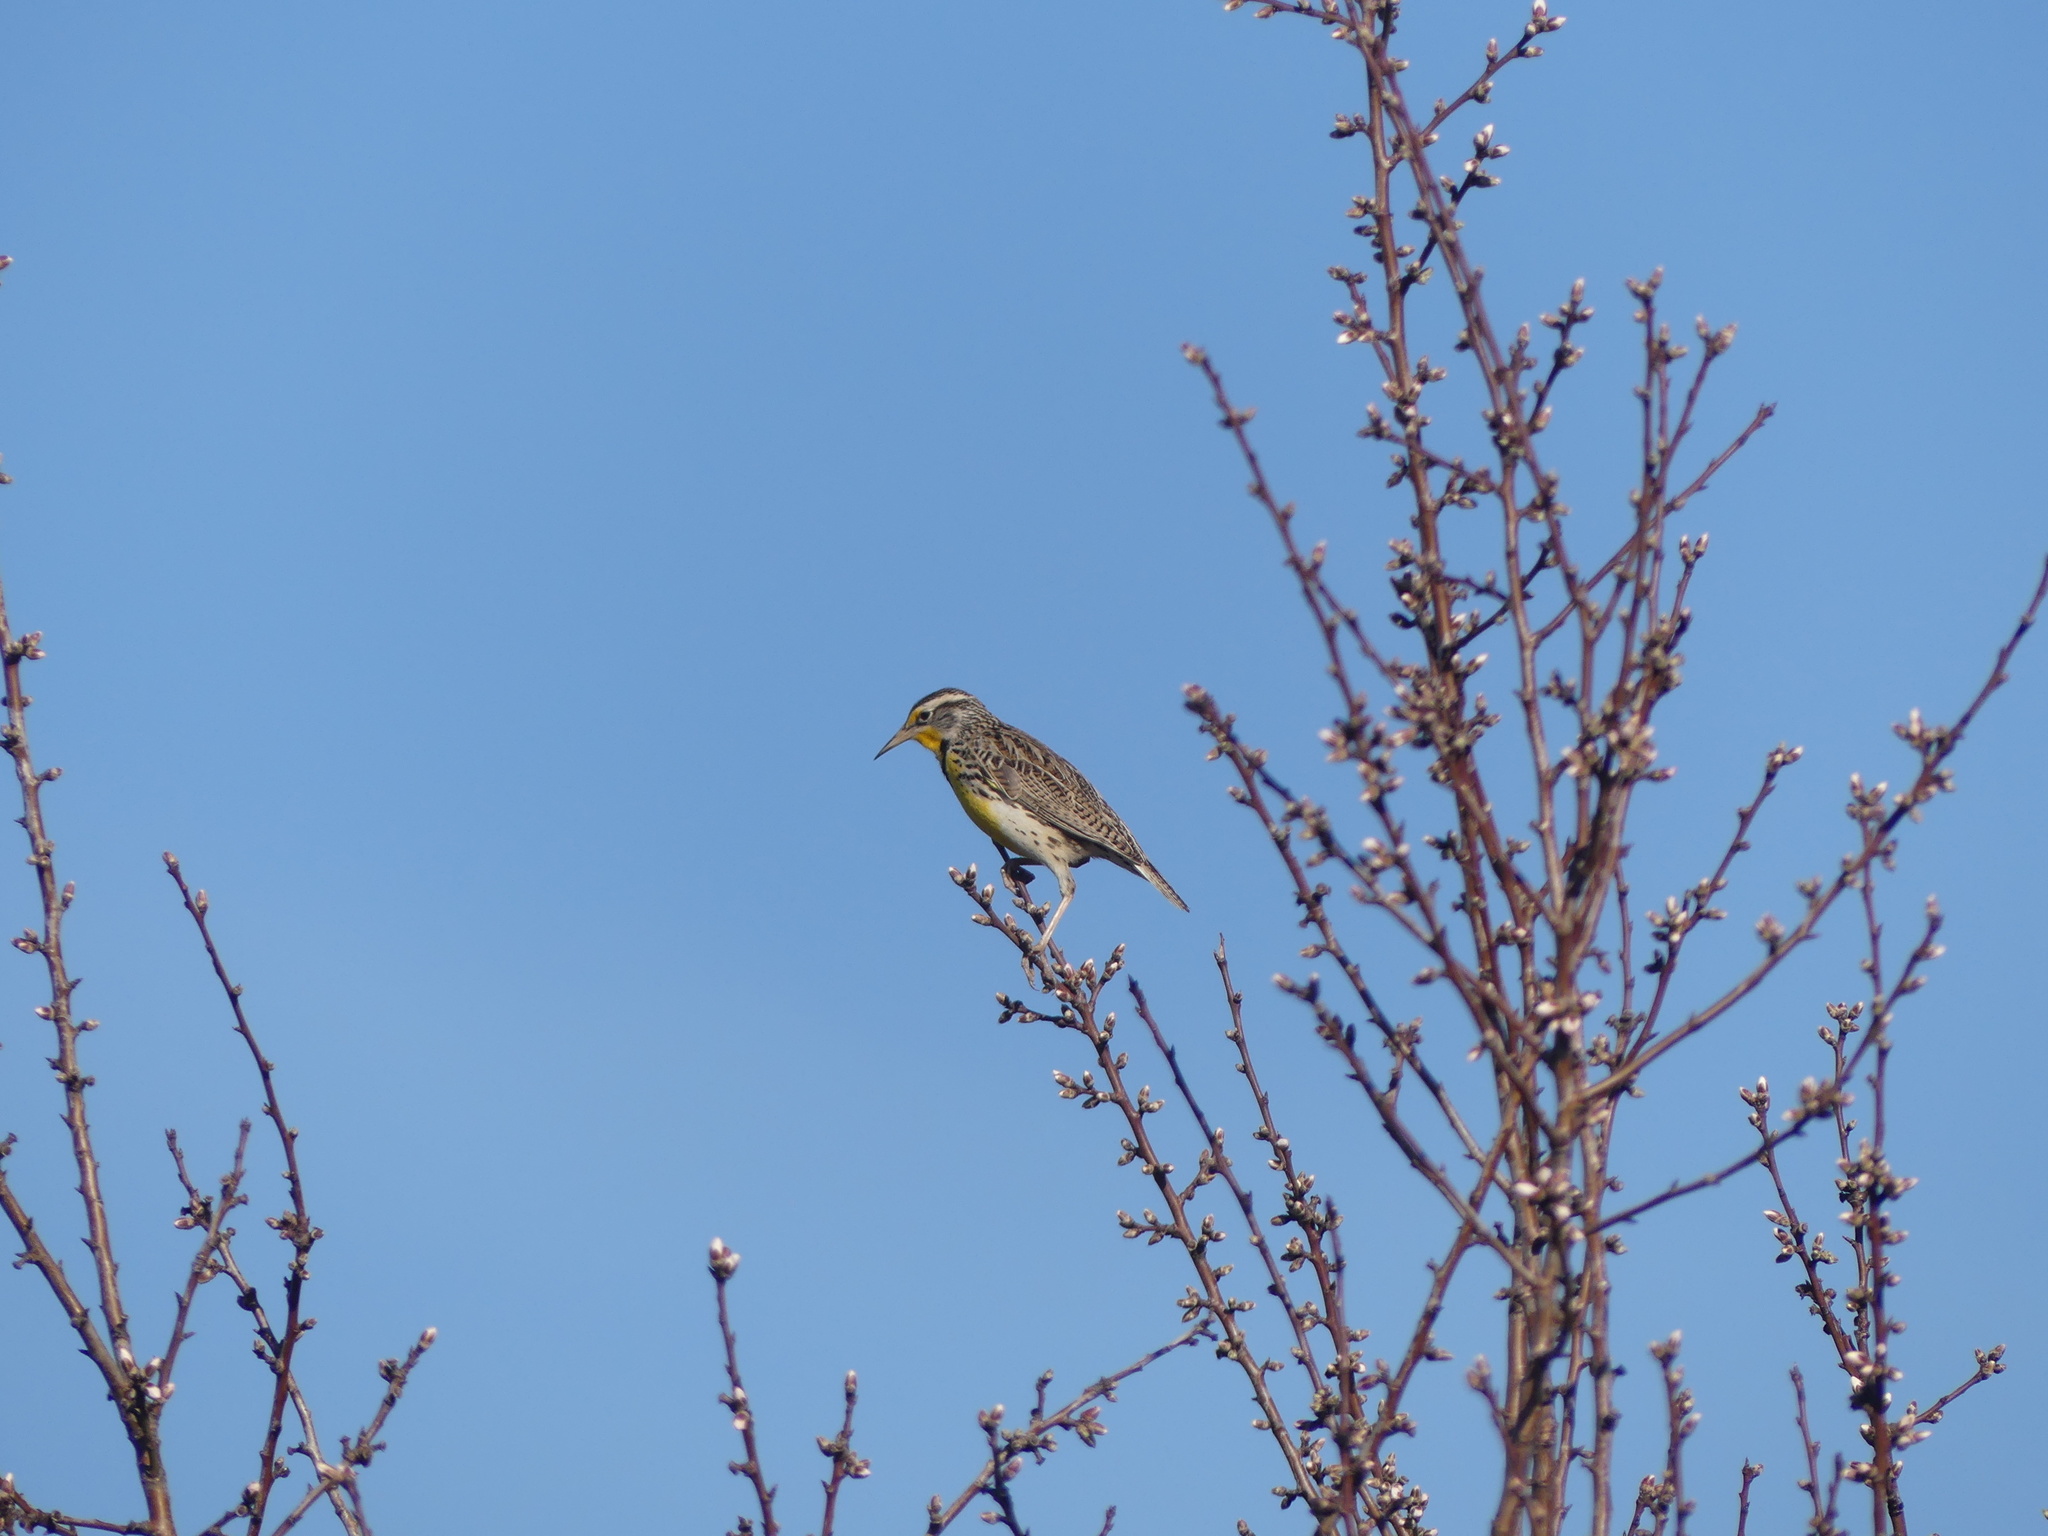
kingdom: Animalia
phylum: Chordata
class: Aves
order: Passeriformes
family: Icteridae
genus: Sturnella
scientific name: Sturnella neglecta
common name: Western meadowlark
